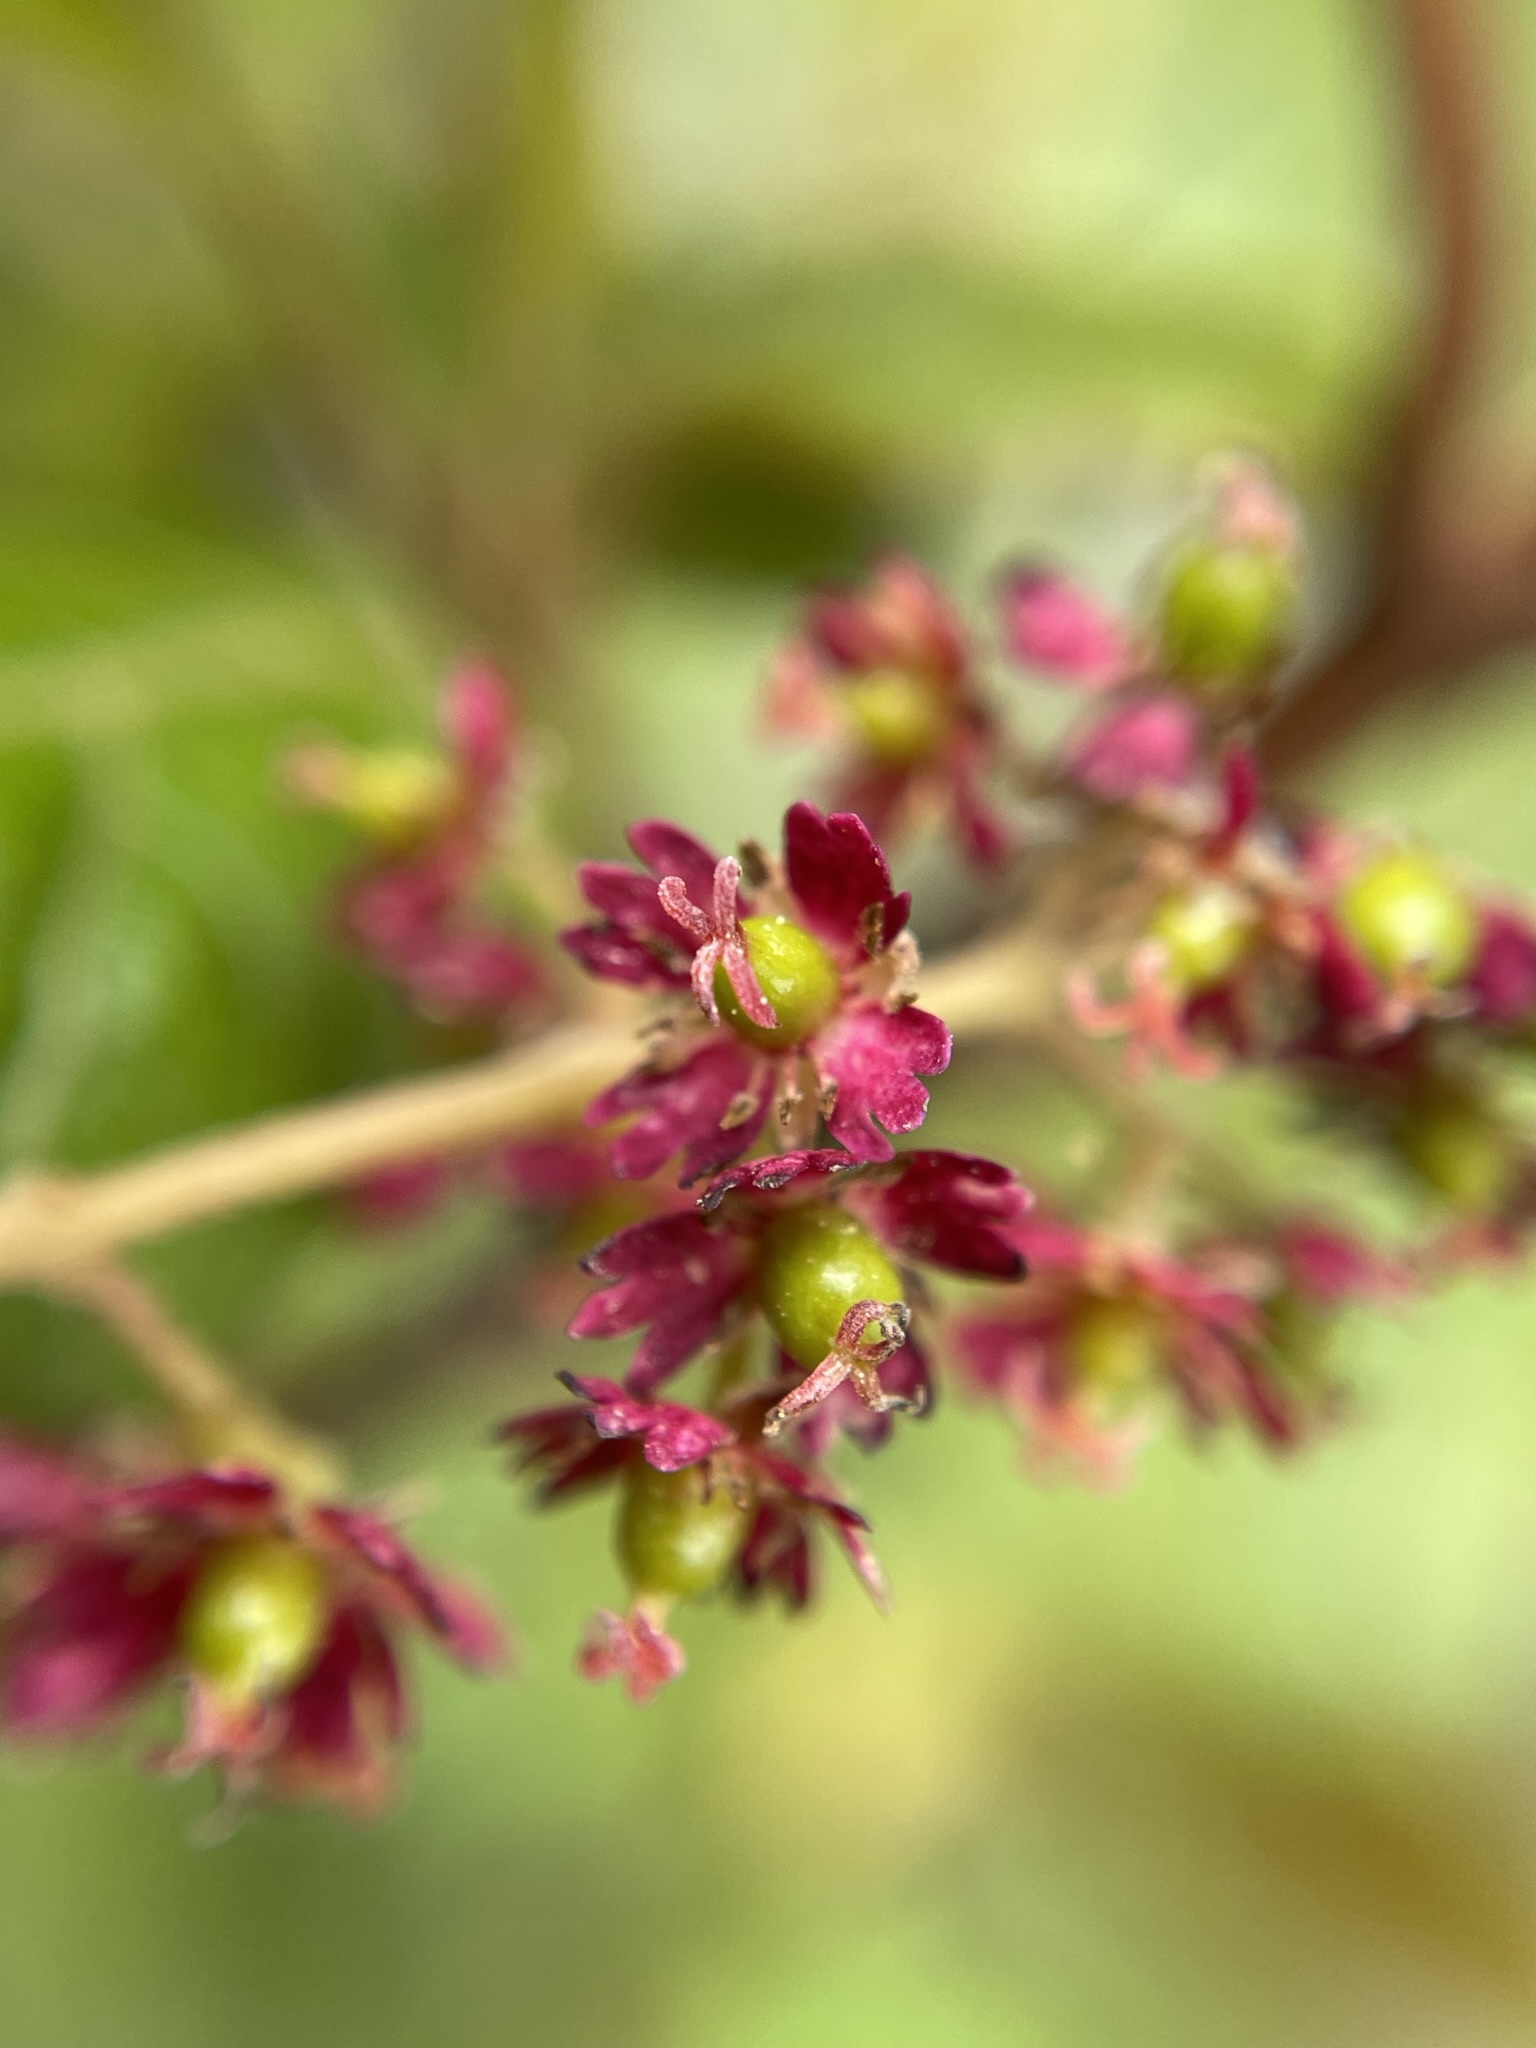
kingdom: Plantae
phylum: Tracheophyta
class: Magnoliopsida
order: Oxalidales
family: Elaeocarpaceae
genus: Aristotelia
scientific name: Aristotelia serrata
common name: New zealand wineberry
